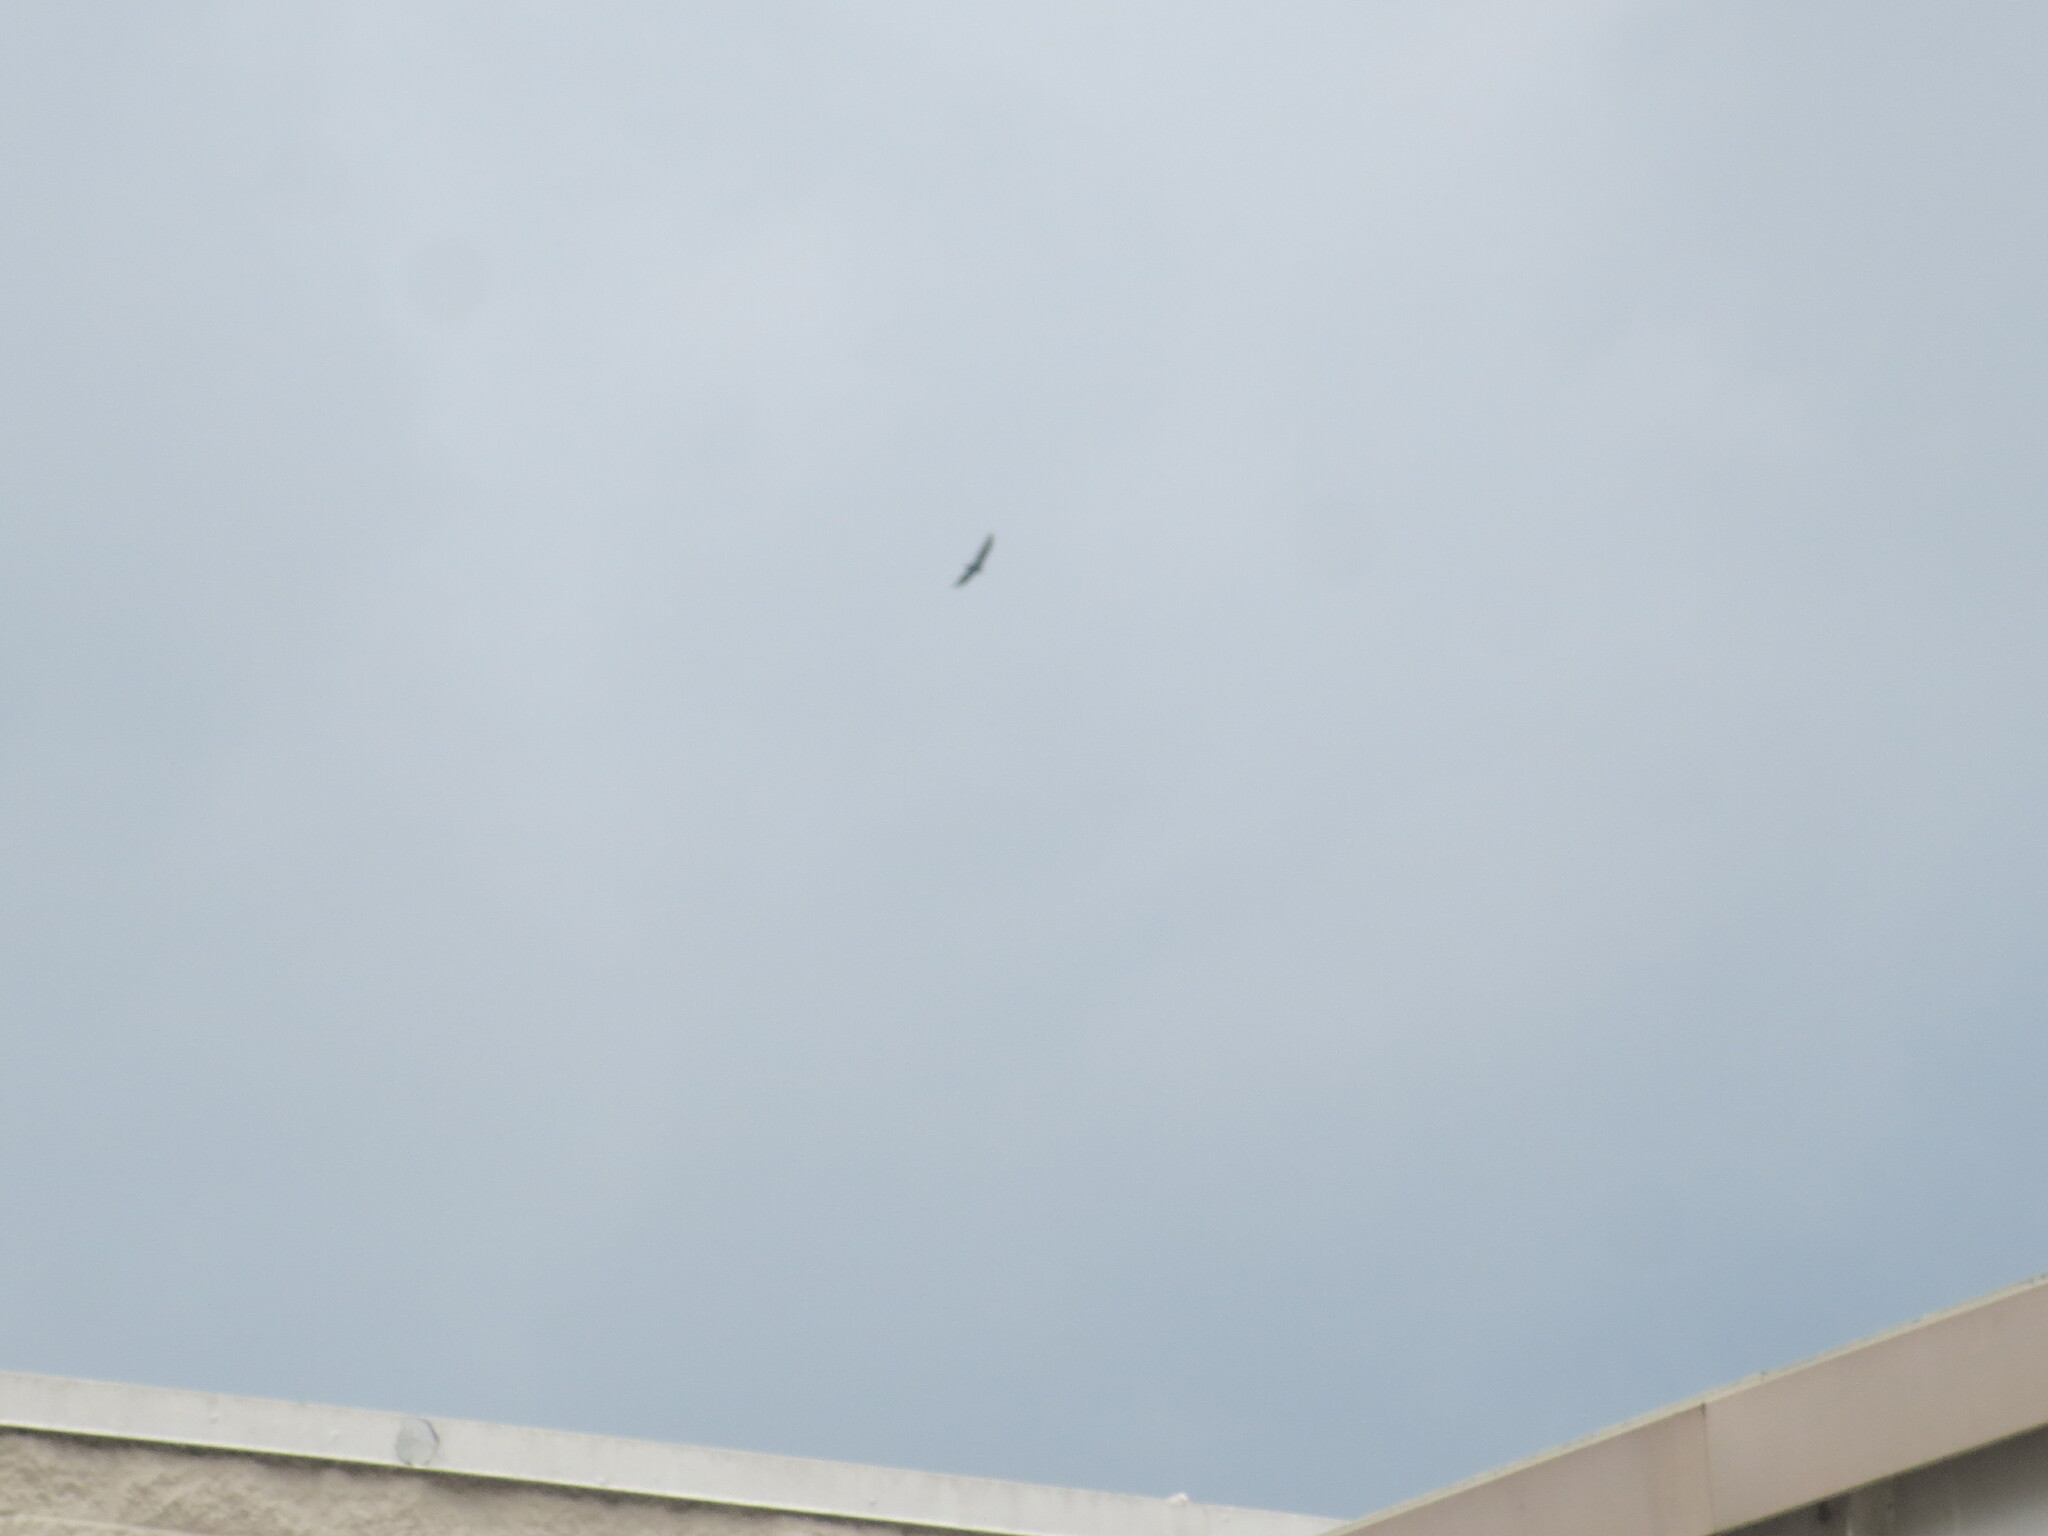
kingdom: Animalia
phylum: Chordata
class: Aves
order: Accipitriformes
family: Cathartidae
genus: Cathartes
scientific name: Cathartes aura
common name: Turkey vulture
